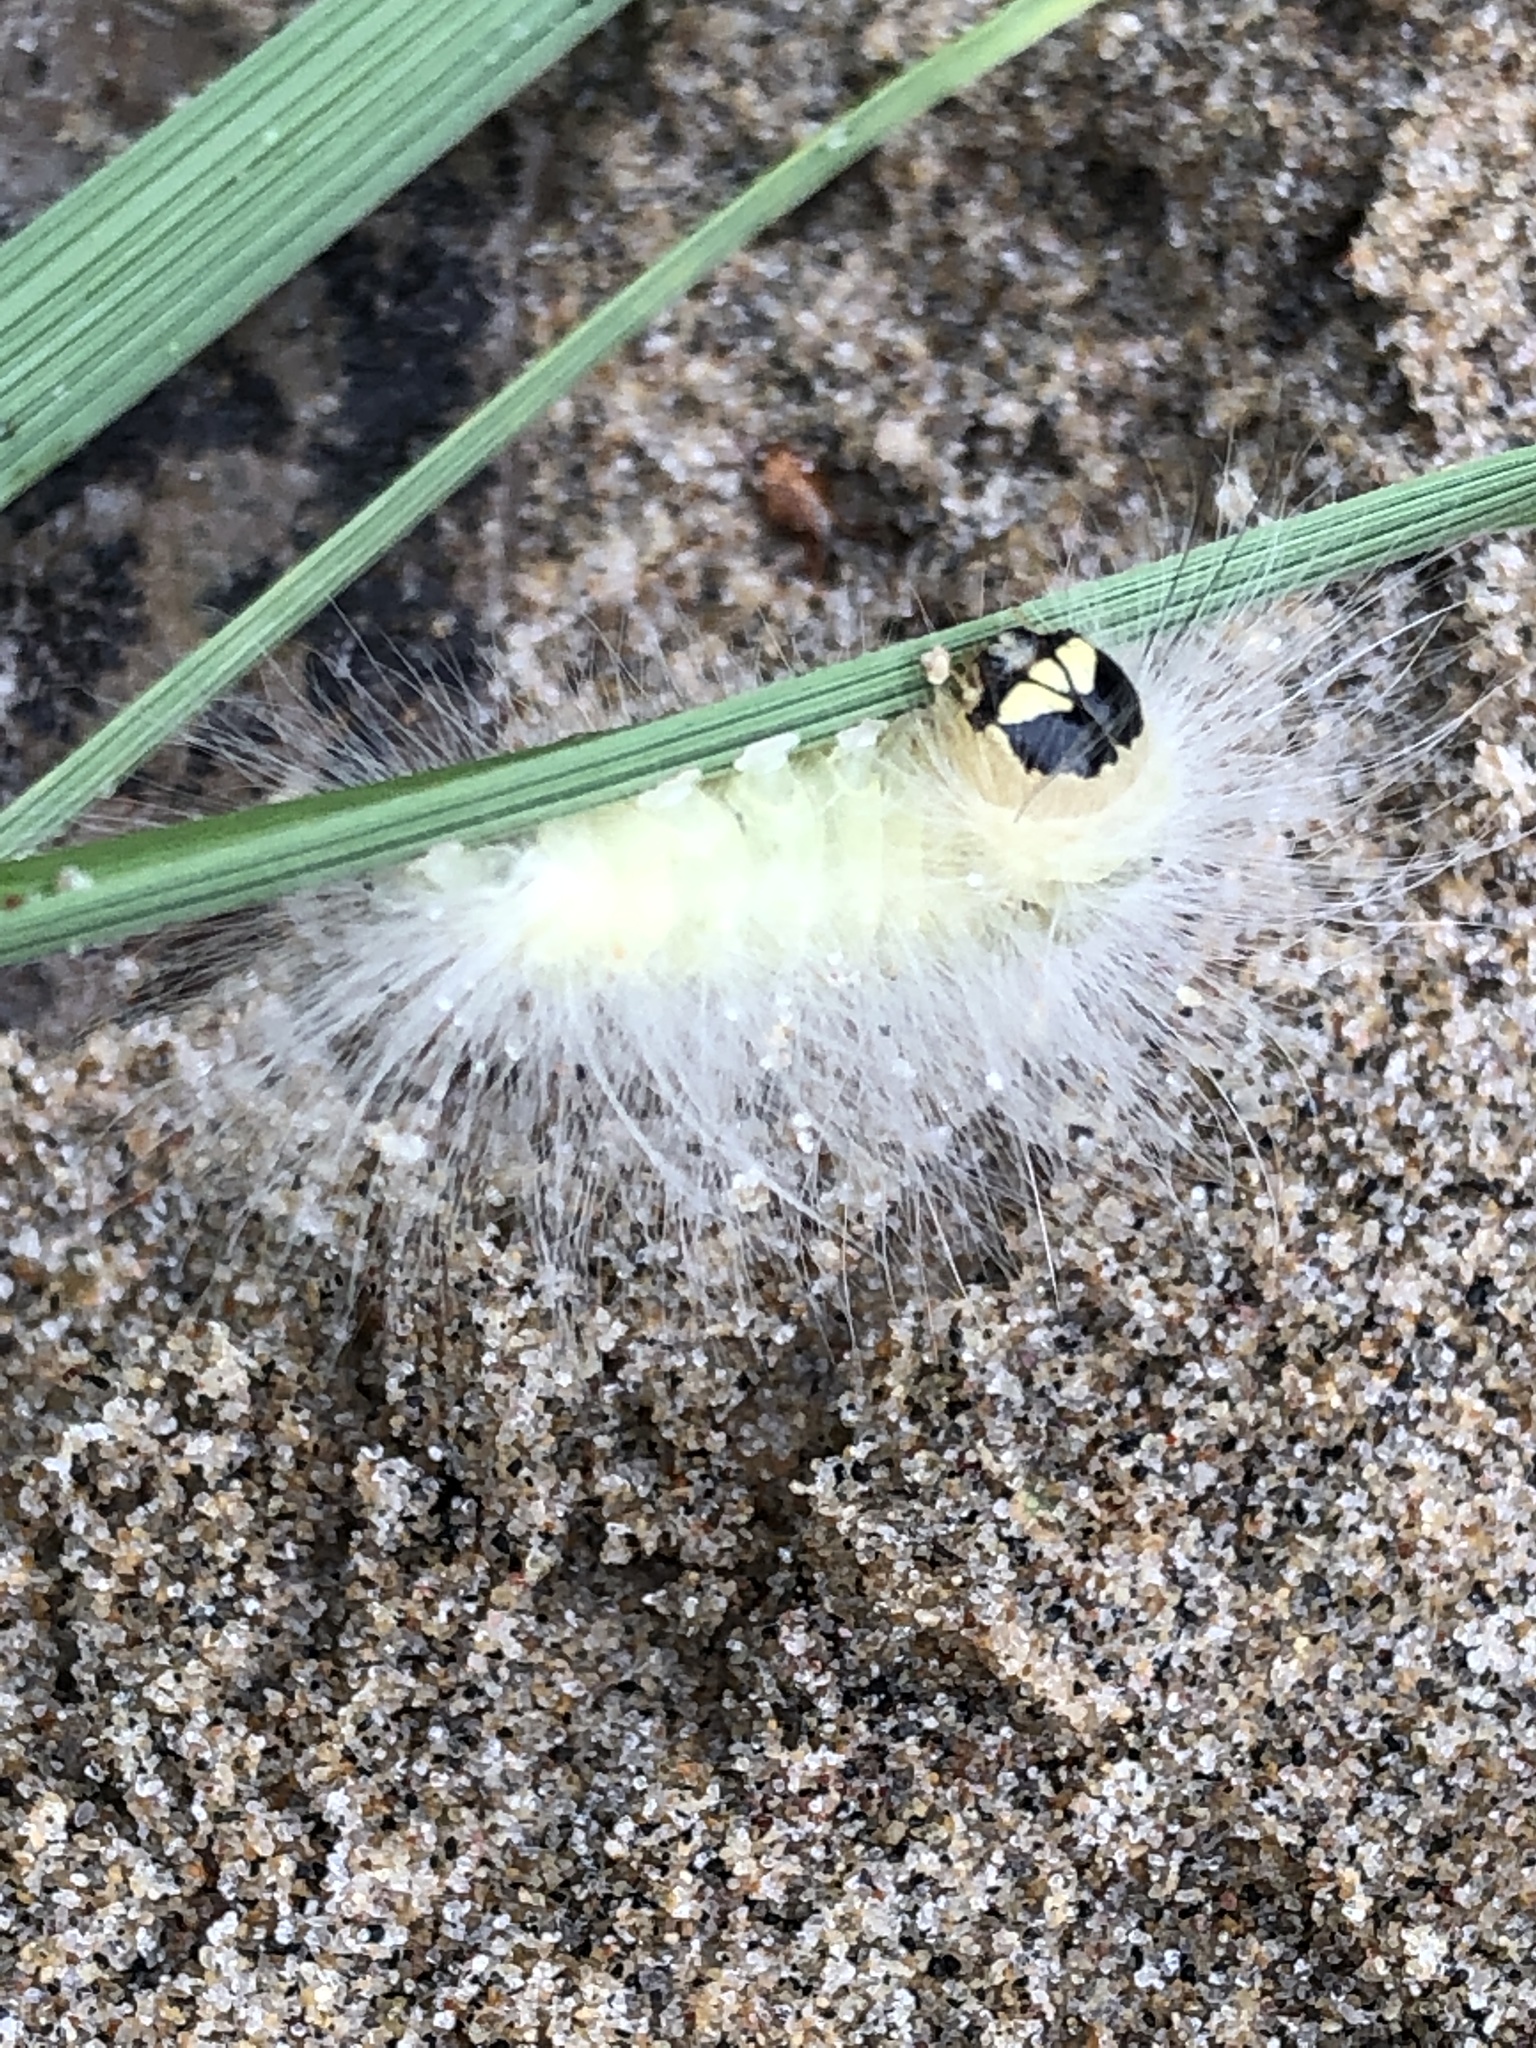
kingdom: Animalia
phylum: Arthropoda
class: Insecta
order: Lepidoptera
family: Noctuidae
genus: Charadra
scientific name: Charadra deridens
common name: Marbled tuffet
